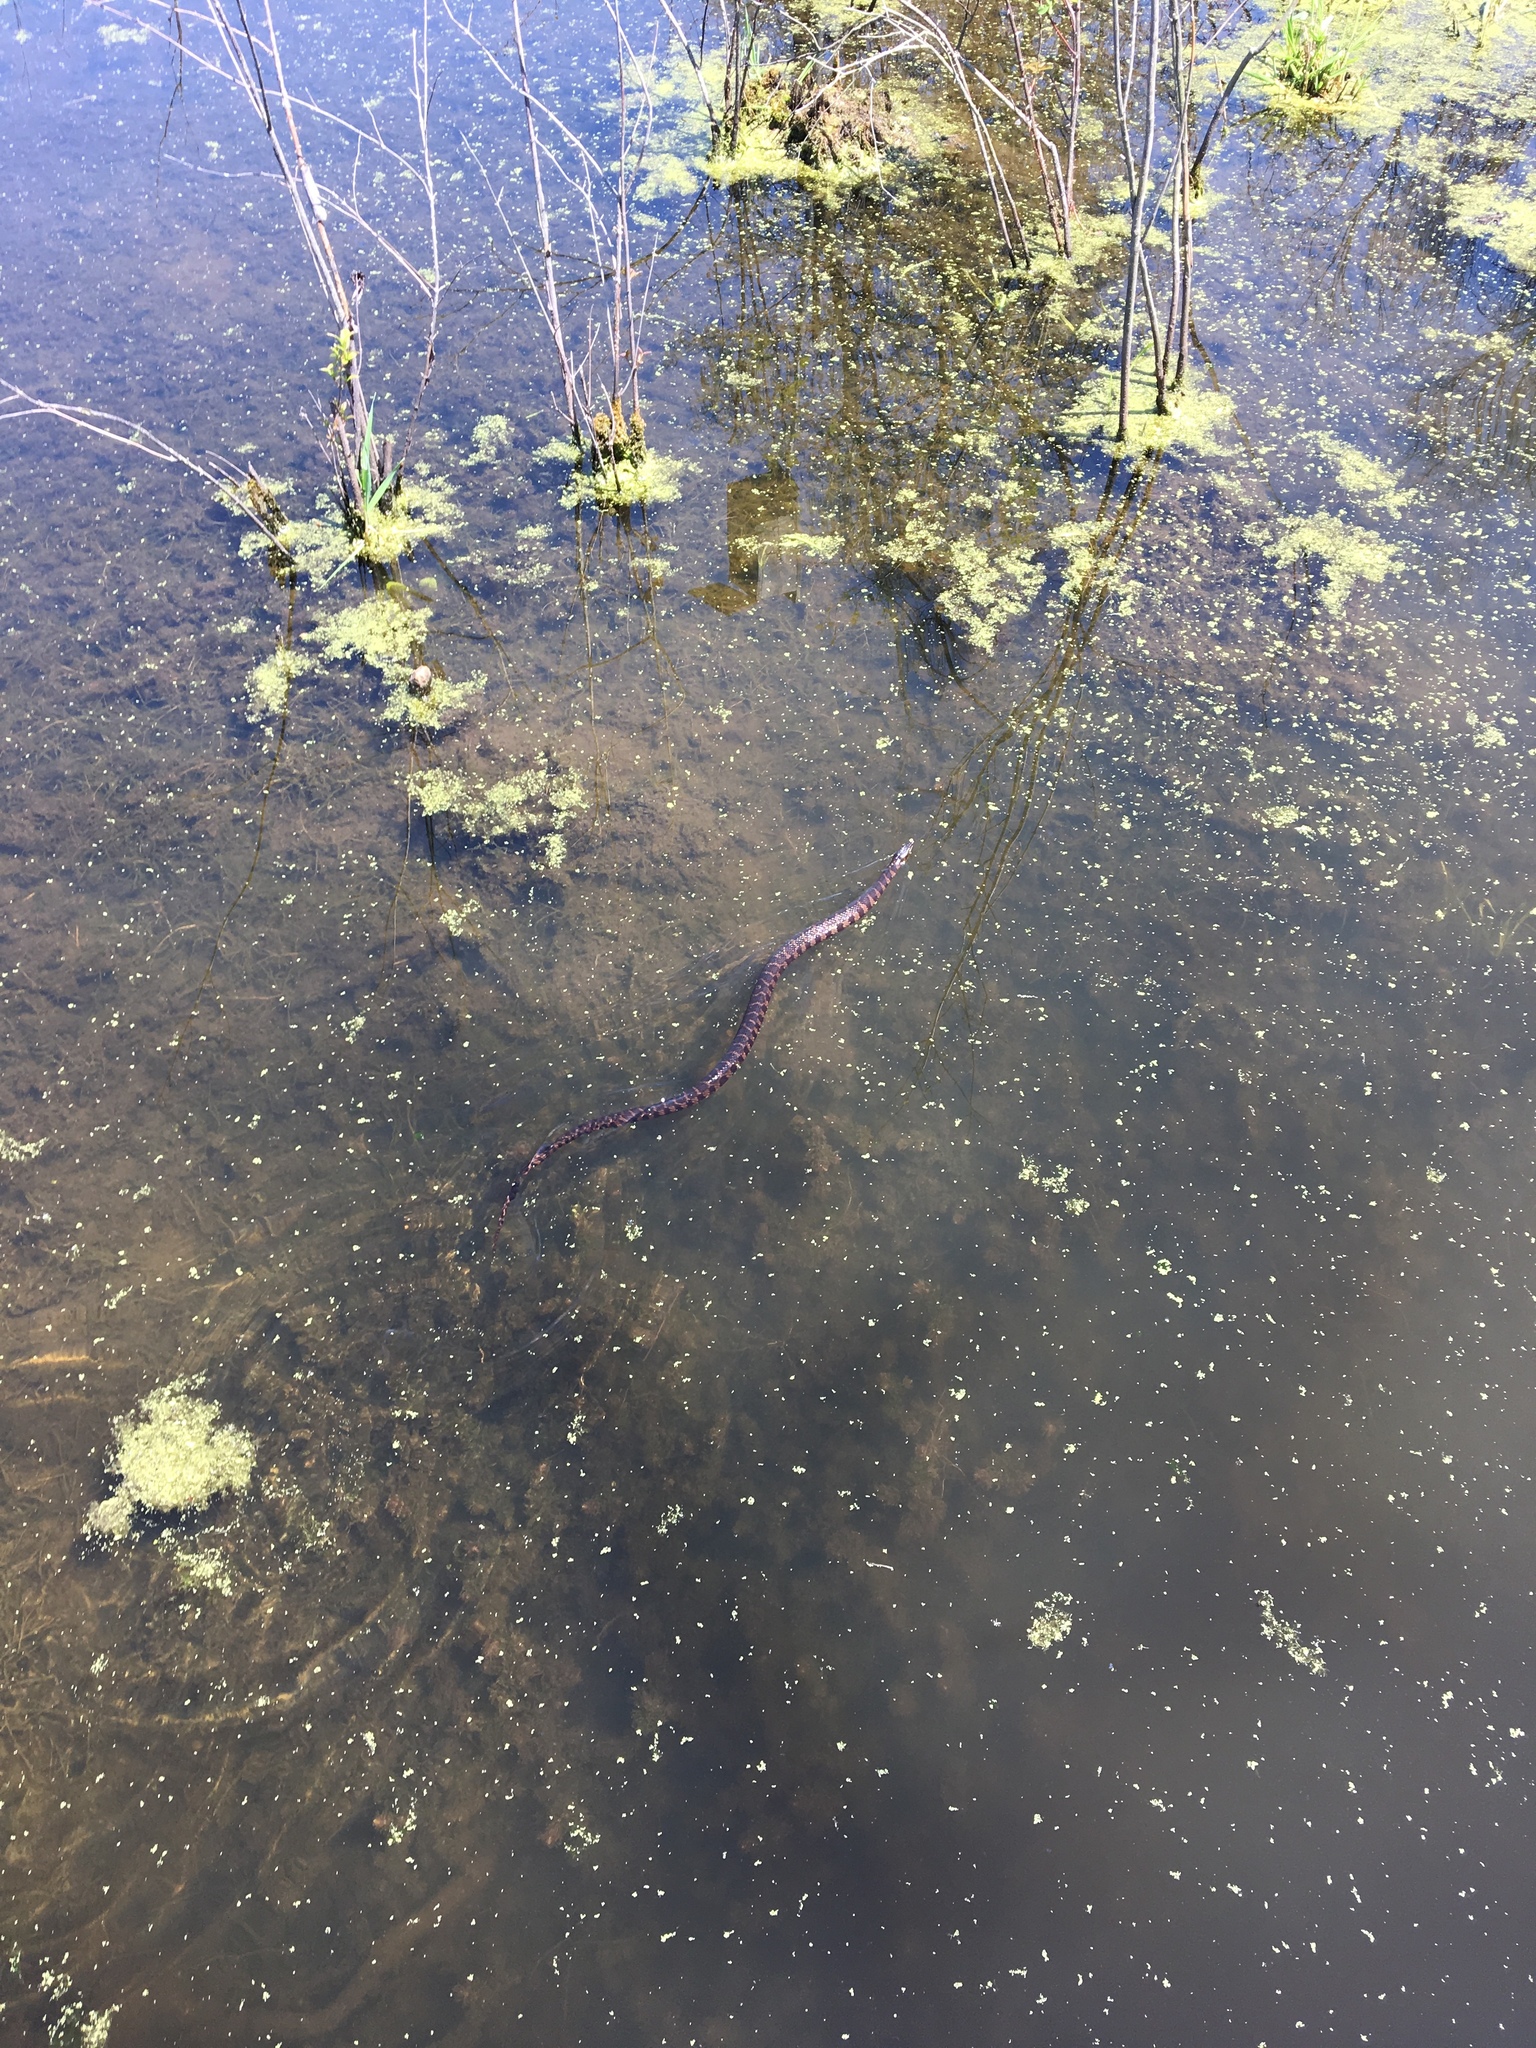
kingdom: Animalia
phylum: Chordata
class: Squamata
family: Colubridae
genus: Nerodia
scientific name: Nerodia sipedon
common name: Northern water snake
